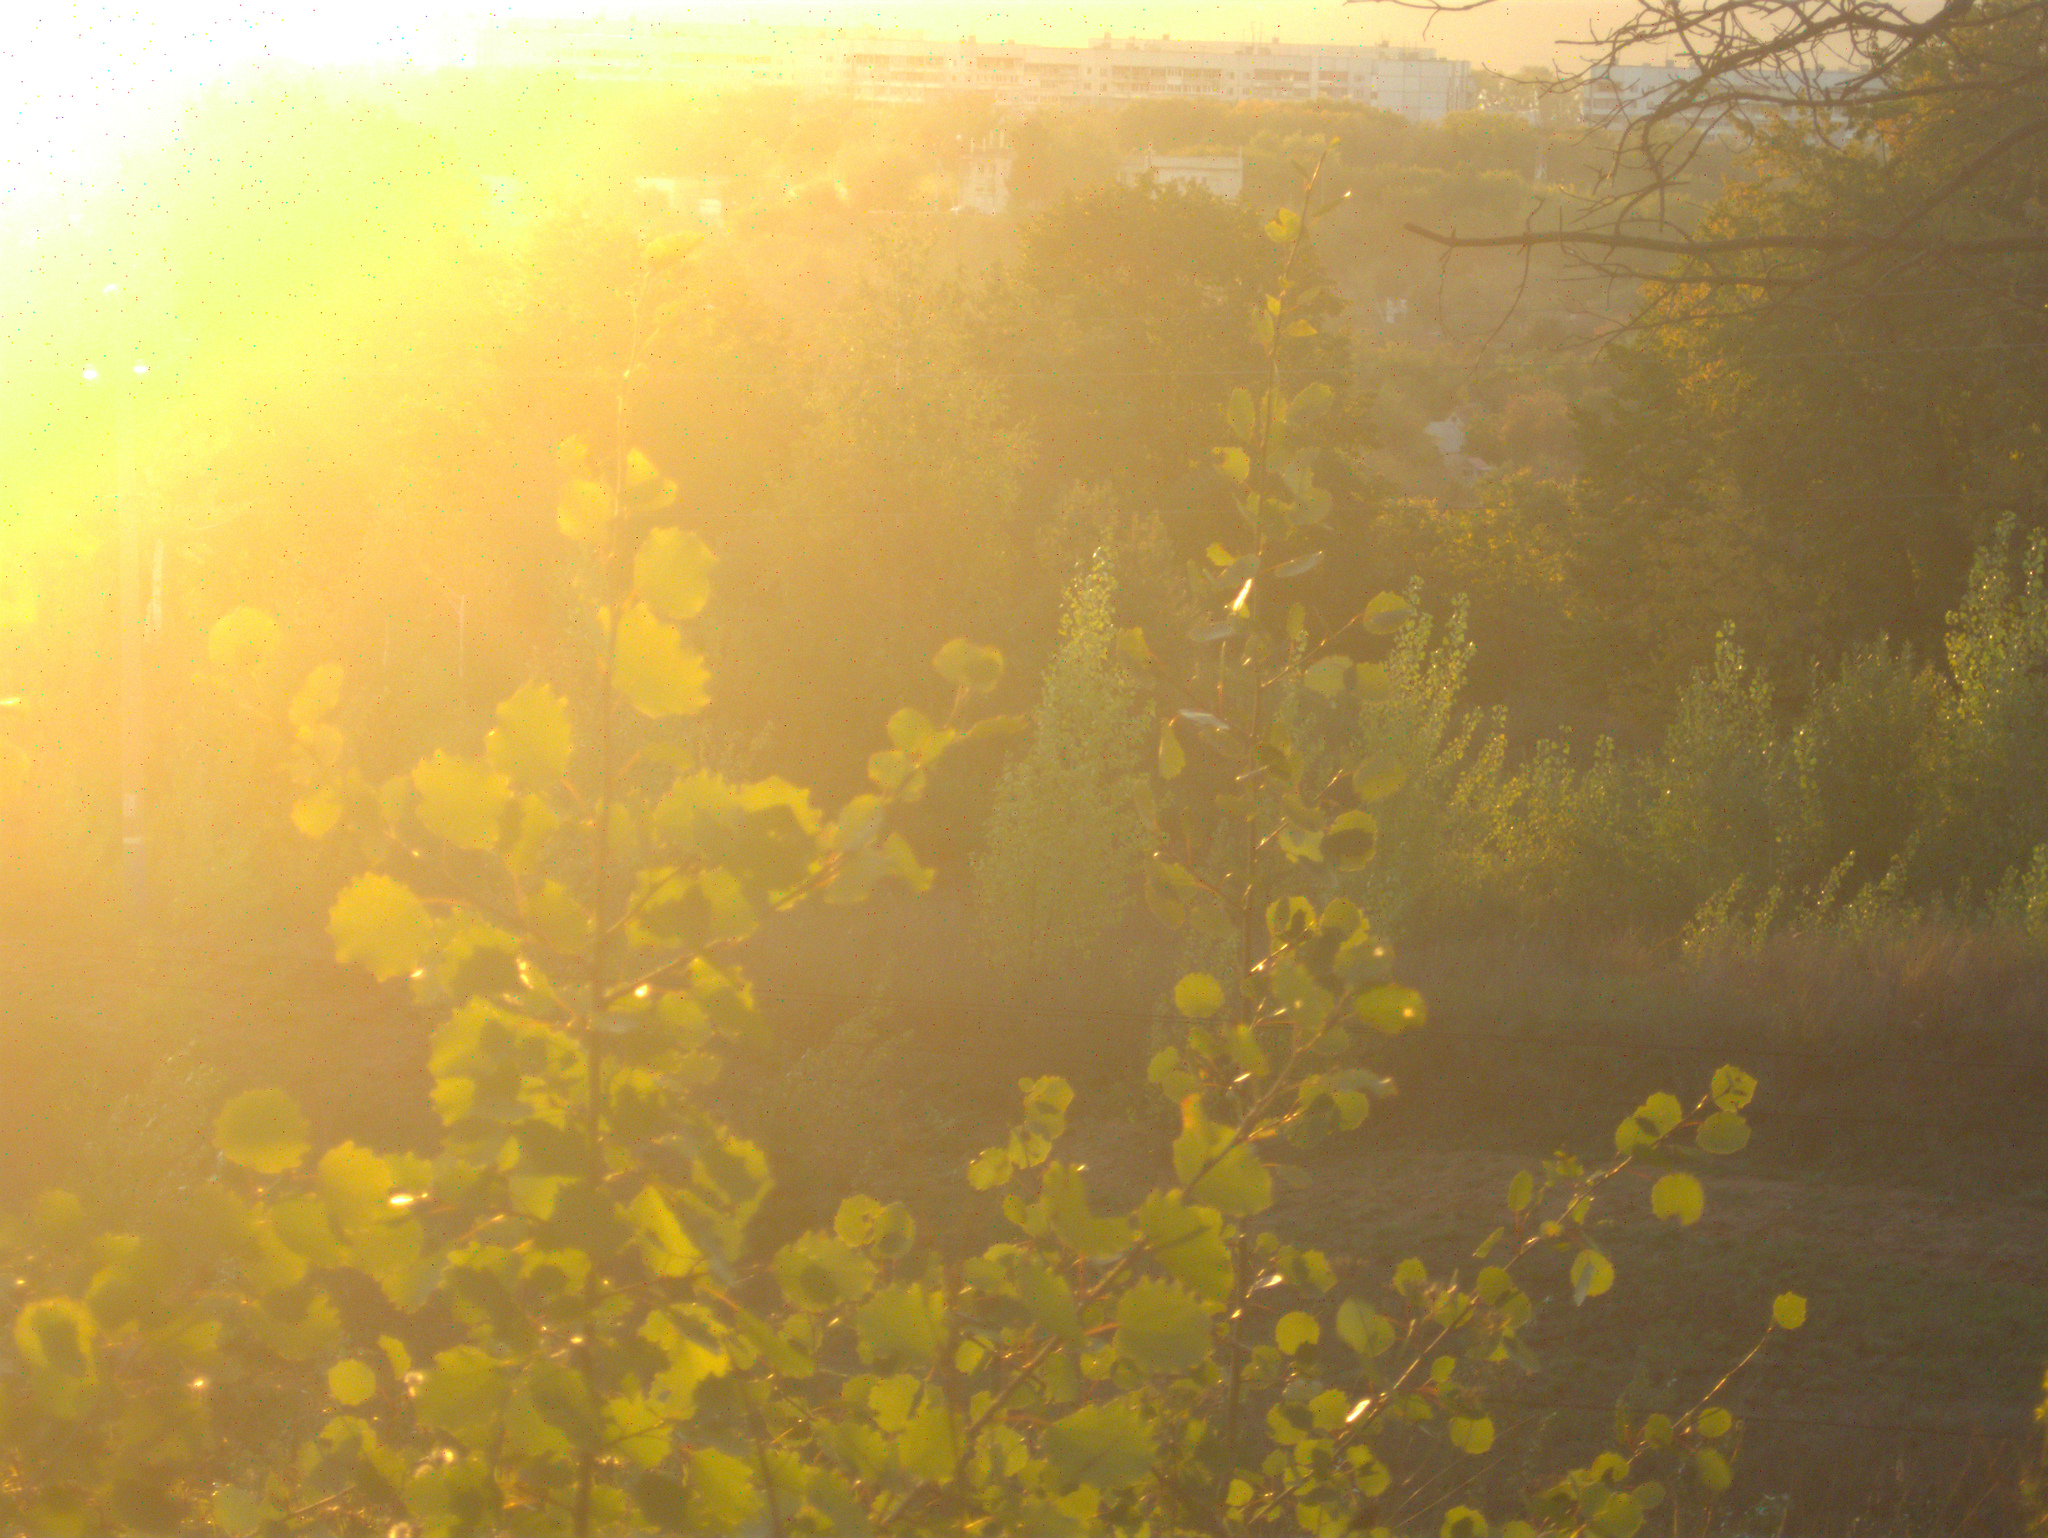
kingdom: Plantae
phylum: Tracheophyta
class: Magnoliopsida
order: Malpighiales
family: Salicaceae
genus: Populus
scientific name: Populus tremula
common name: European aspen
